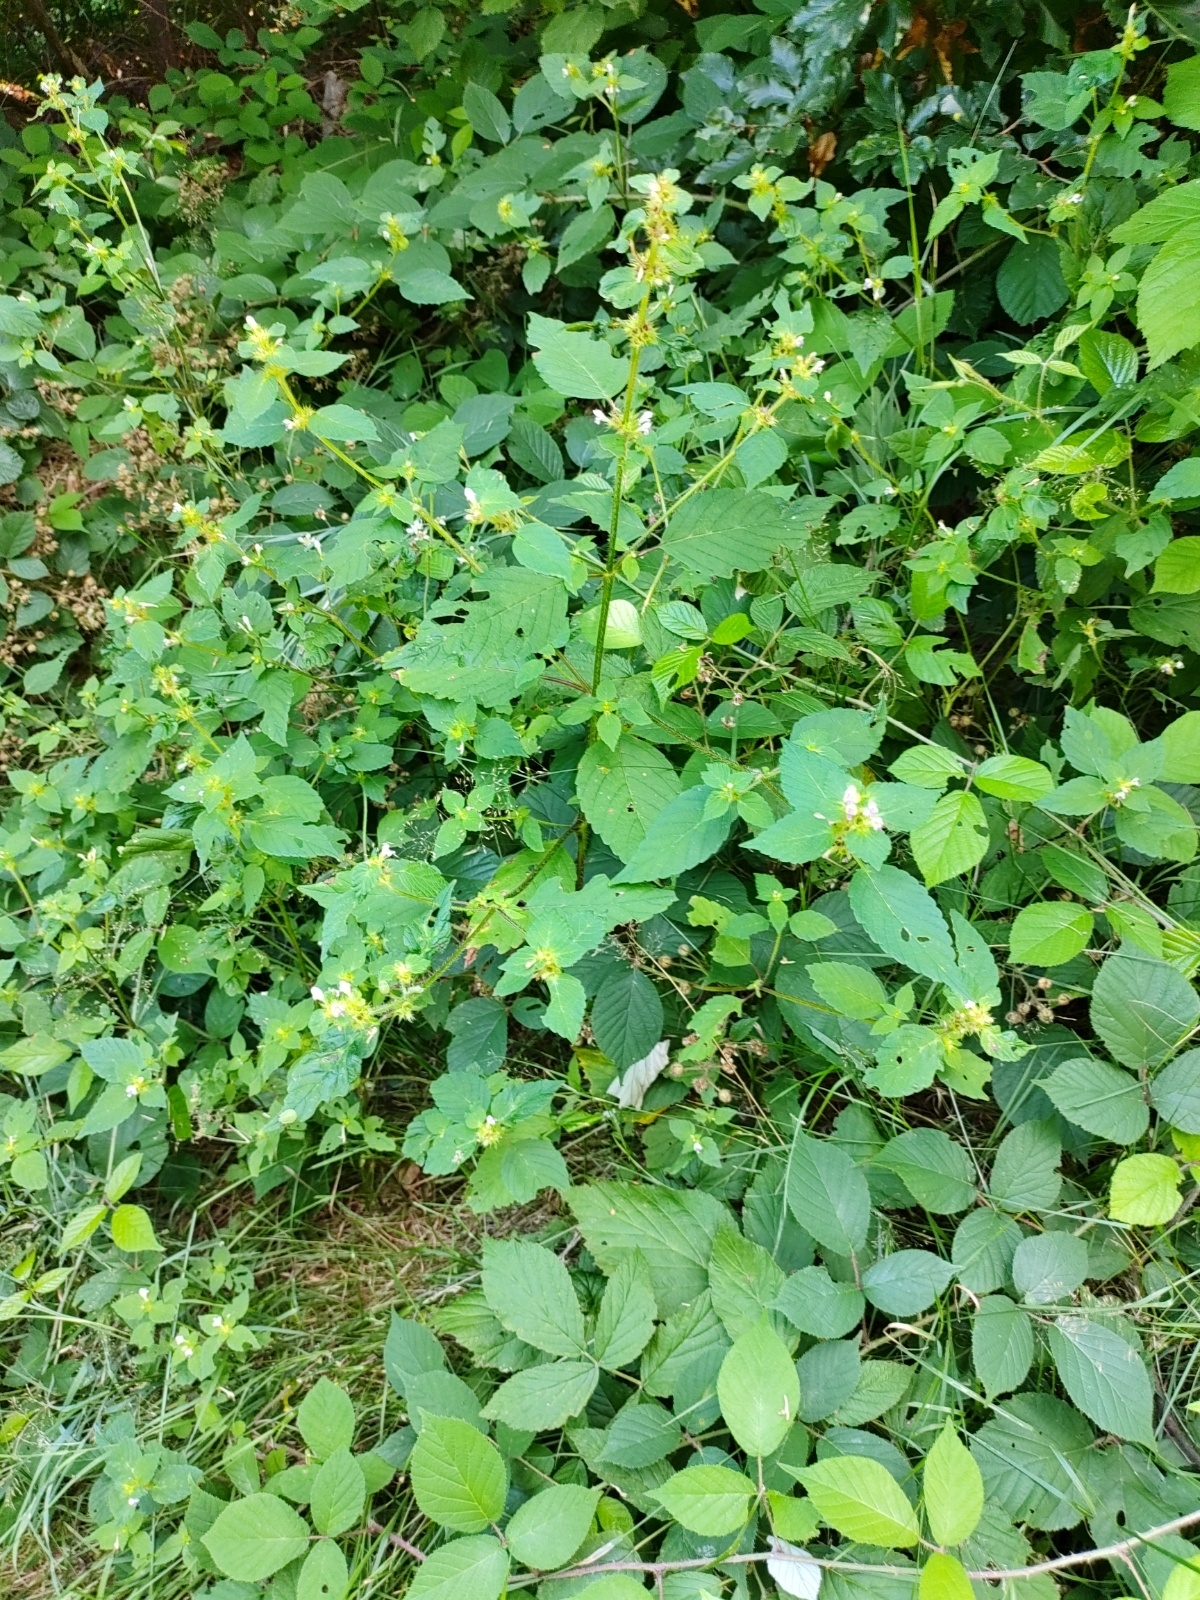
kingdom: Plantae
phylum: Tracheophyta
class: Magnoliopsida
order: Lamiales
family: Lamiaceae
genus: Galeopsis
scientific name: Galeopsis speciosa
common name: Large-flowered hemp-nettle
